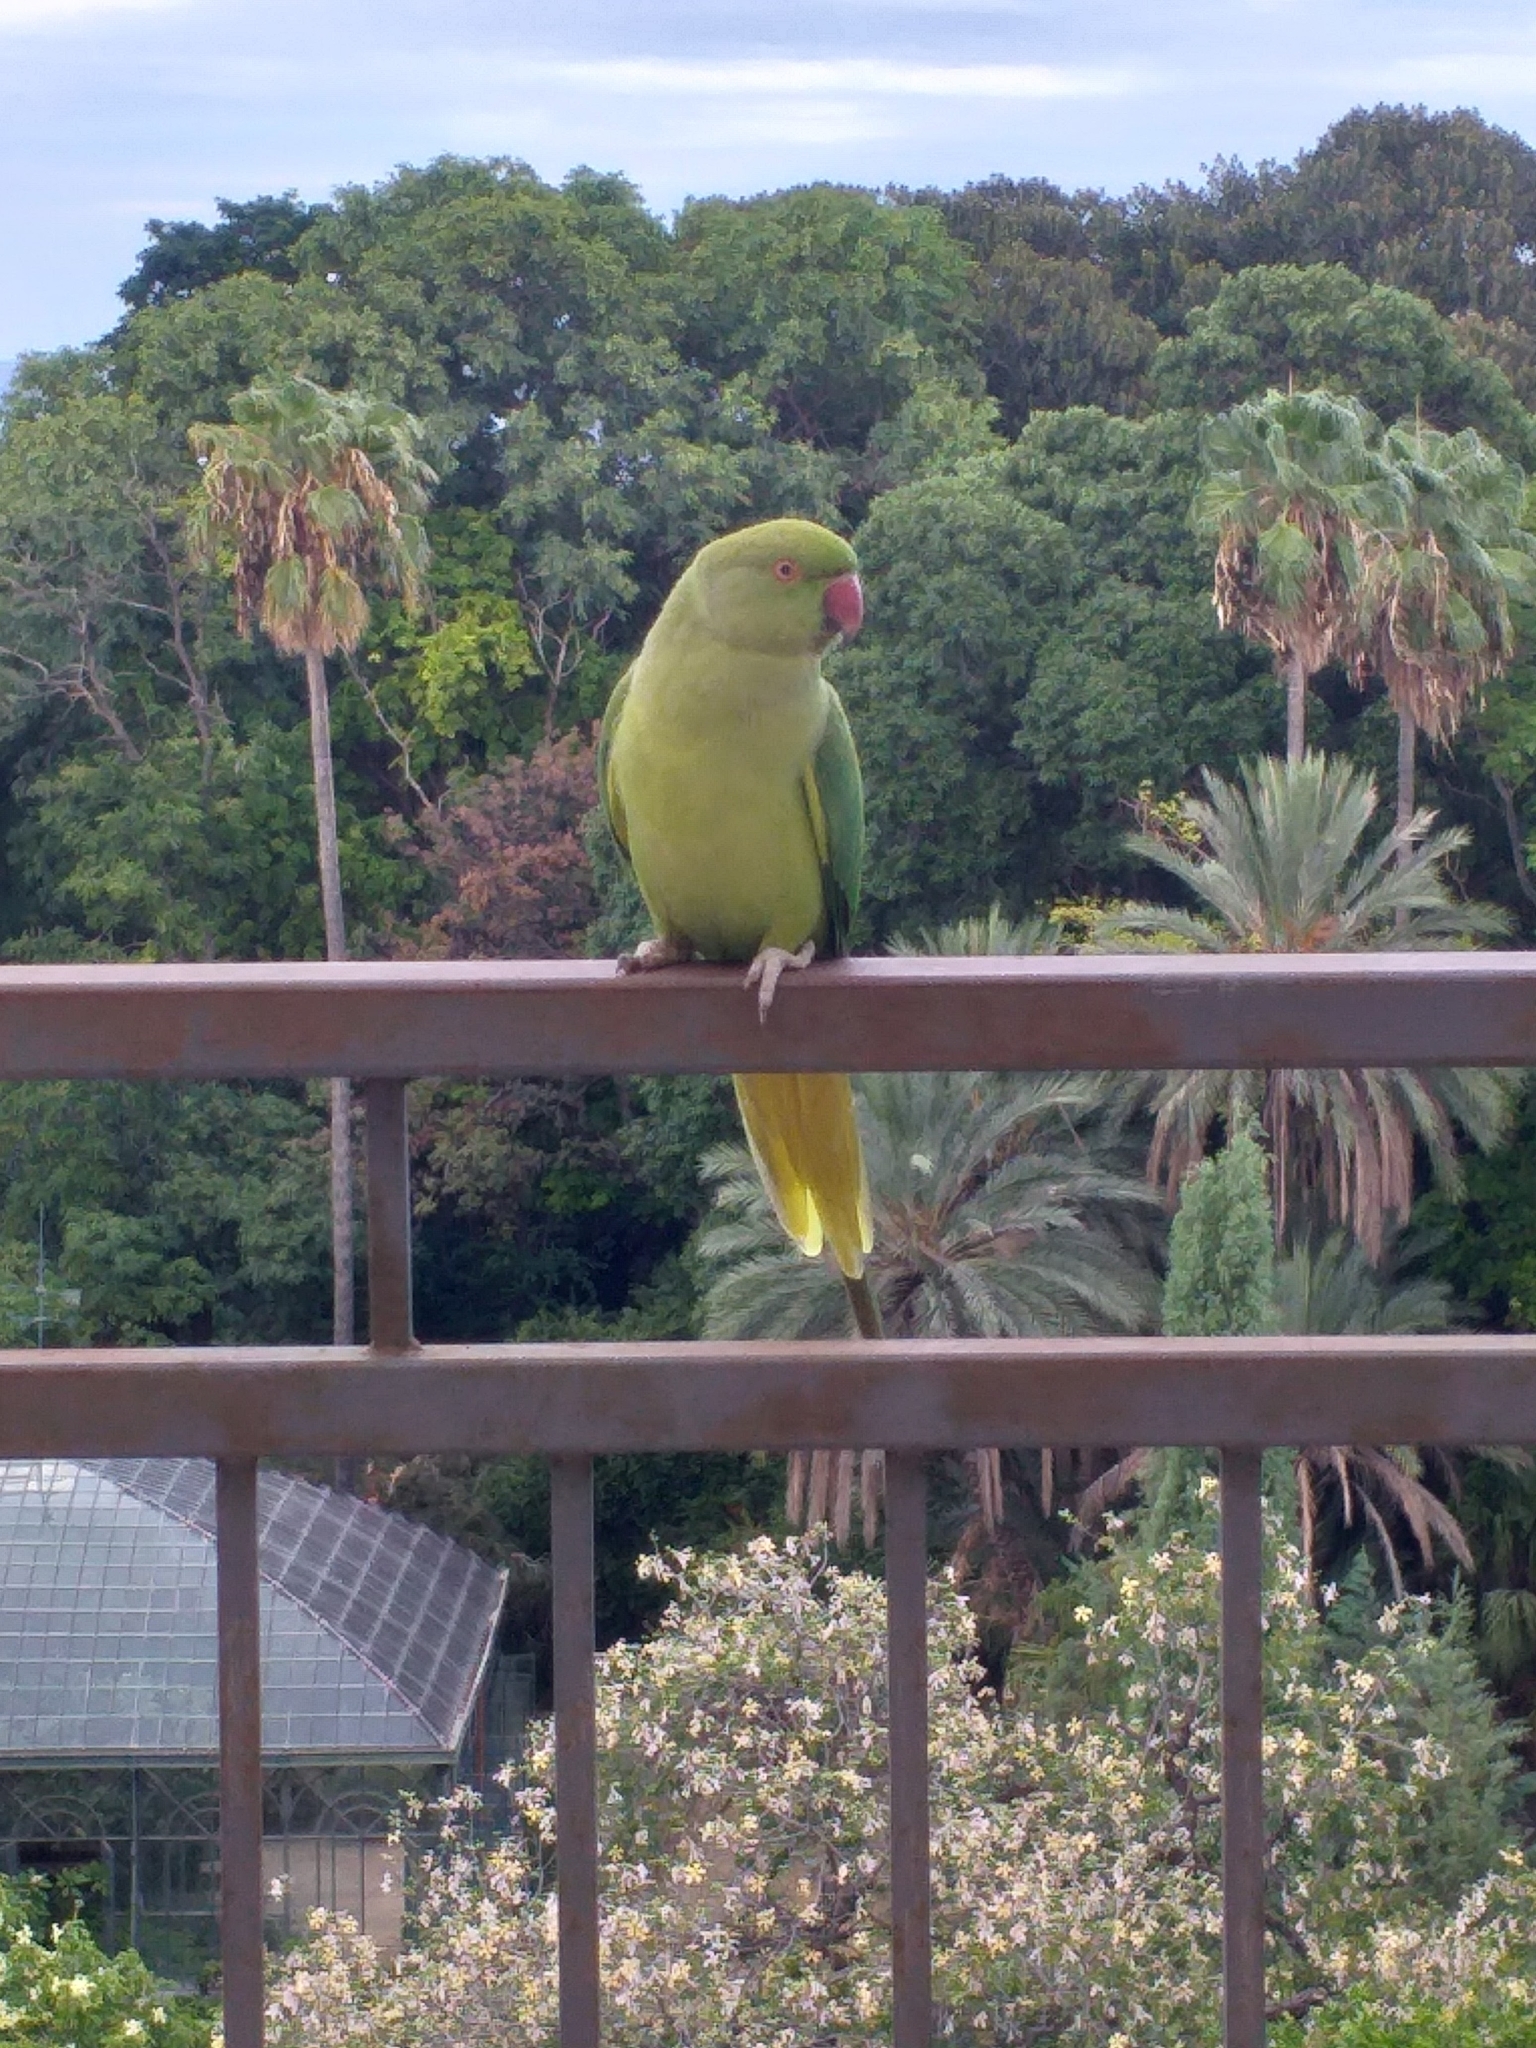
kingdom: Animalia
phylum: Chordata
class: Aves
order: Psittaciformes
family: Psittacidae
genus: Psittacula
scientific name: Psittacula krameri
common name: Rose-ringed parakeet
